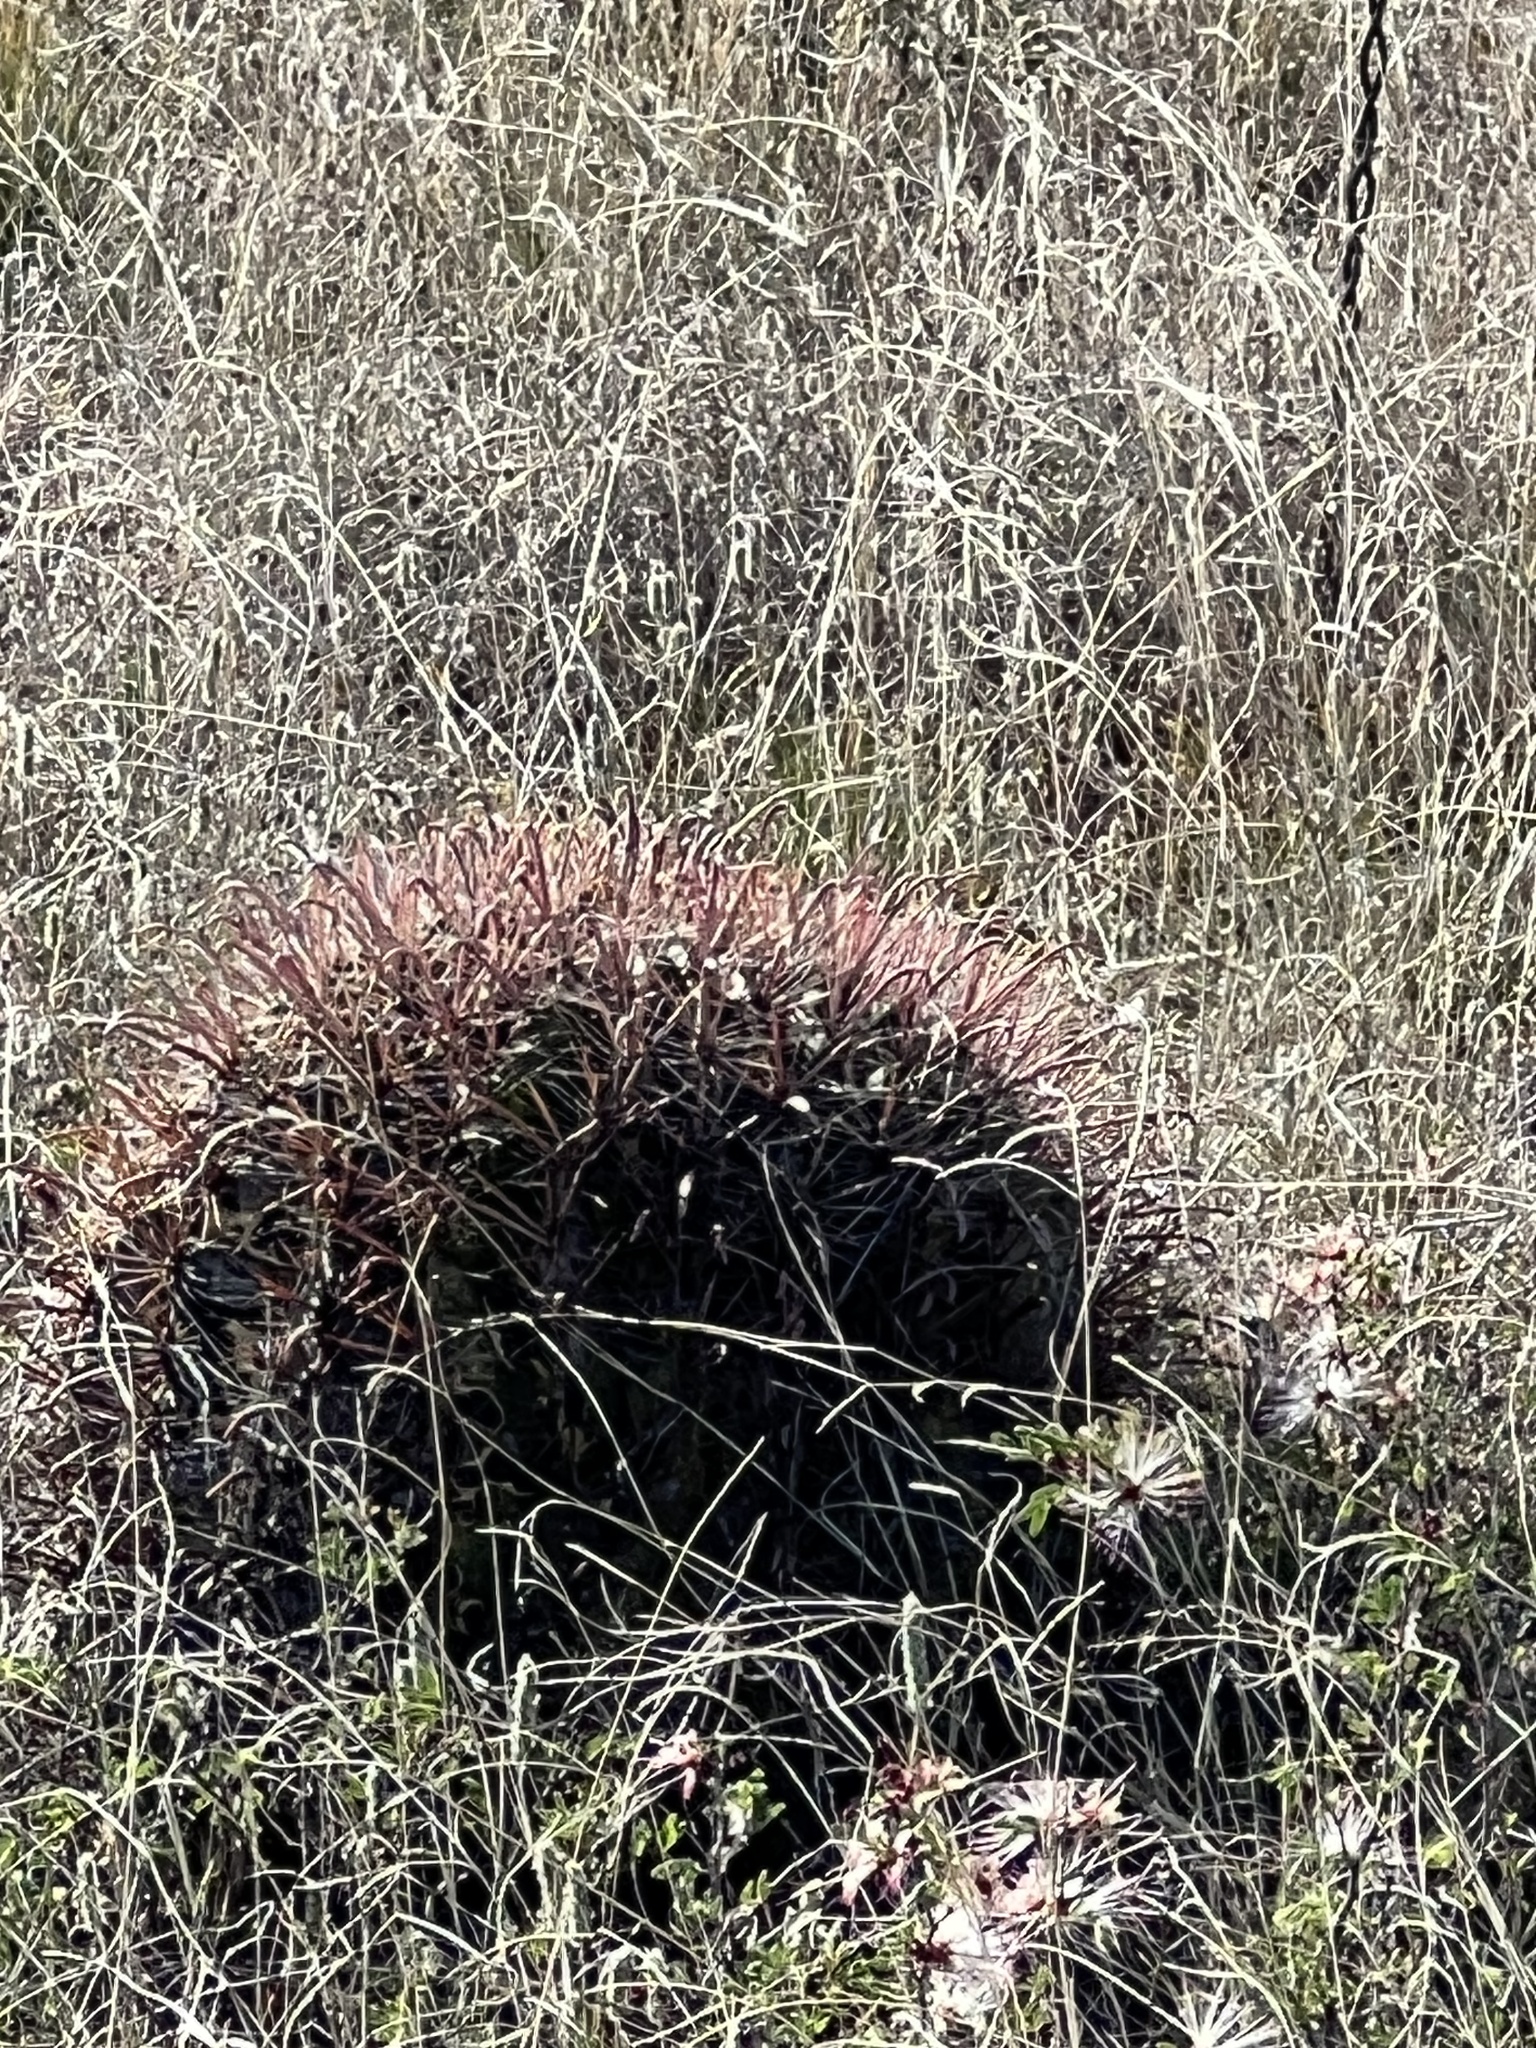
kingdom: Plantae
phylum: Tracheophyta
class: Magnoliopsida
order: Caryophyllales
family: Cactaceae
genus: Ferocactus
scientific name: Ferocactus wislizeni
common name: Candy barrel cactus
